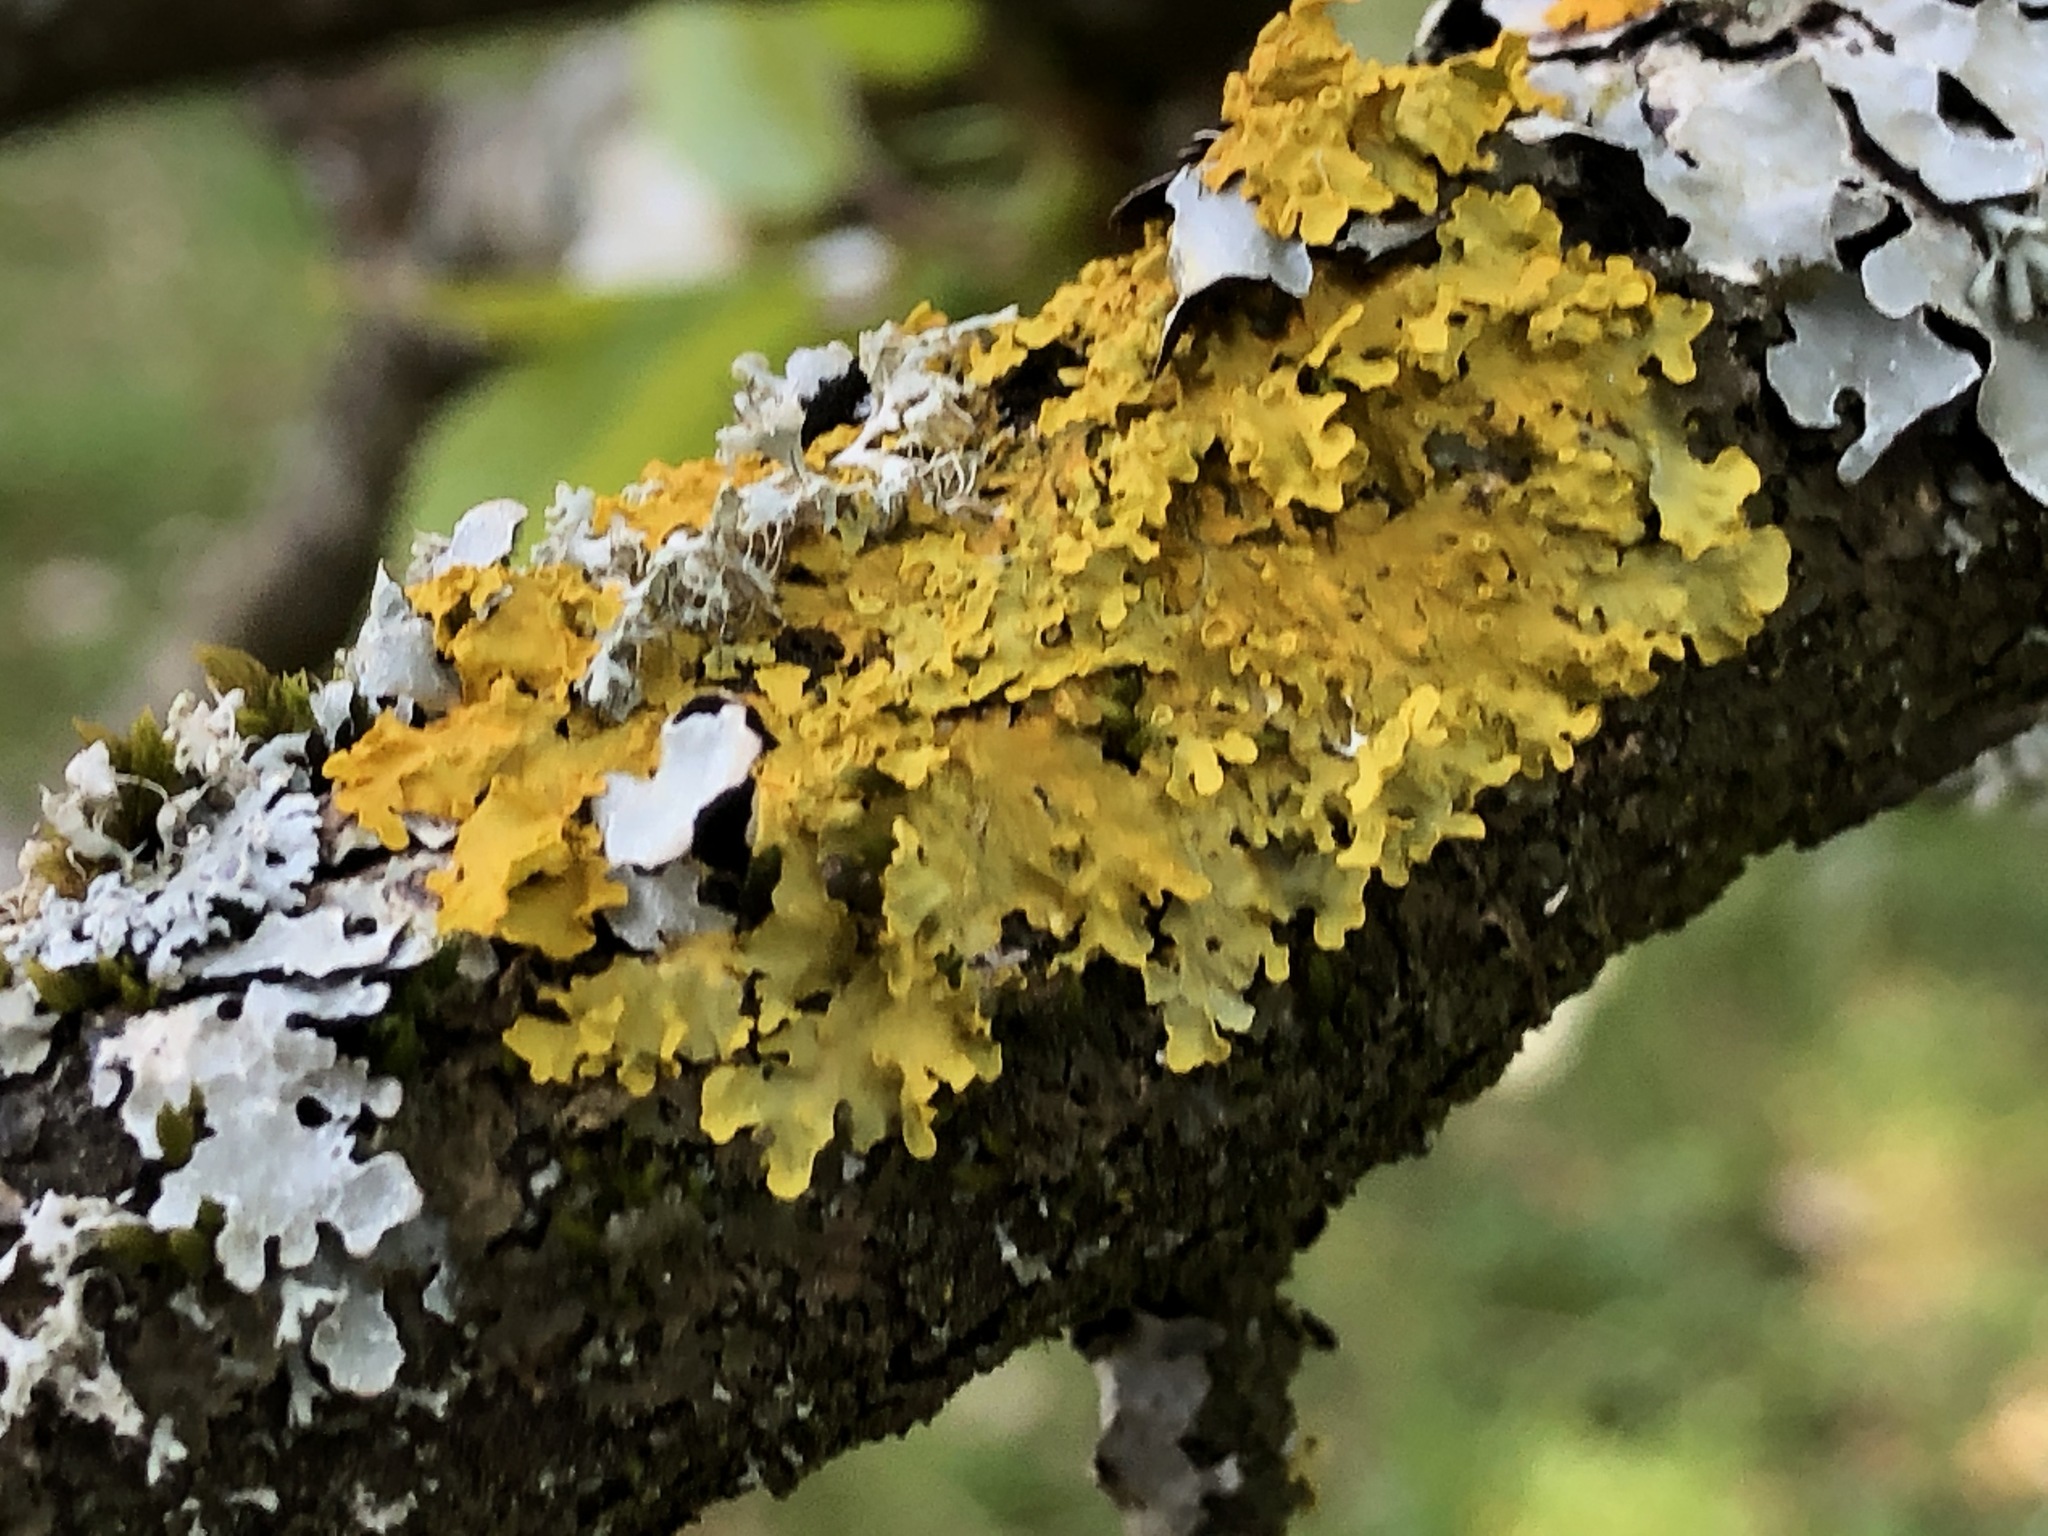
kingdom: Fungi
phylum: Ascomycota
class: Lecanoromycetes
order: Teloschistales
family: Teloschistaceae
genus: Xanthoria
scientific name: Xanthoria parietina
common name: Common orange lichen
